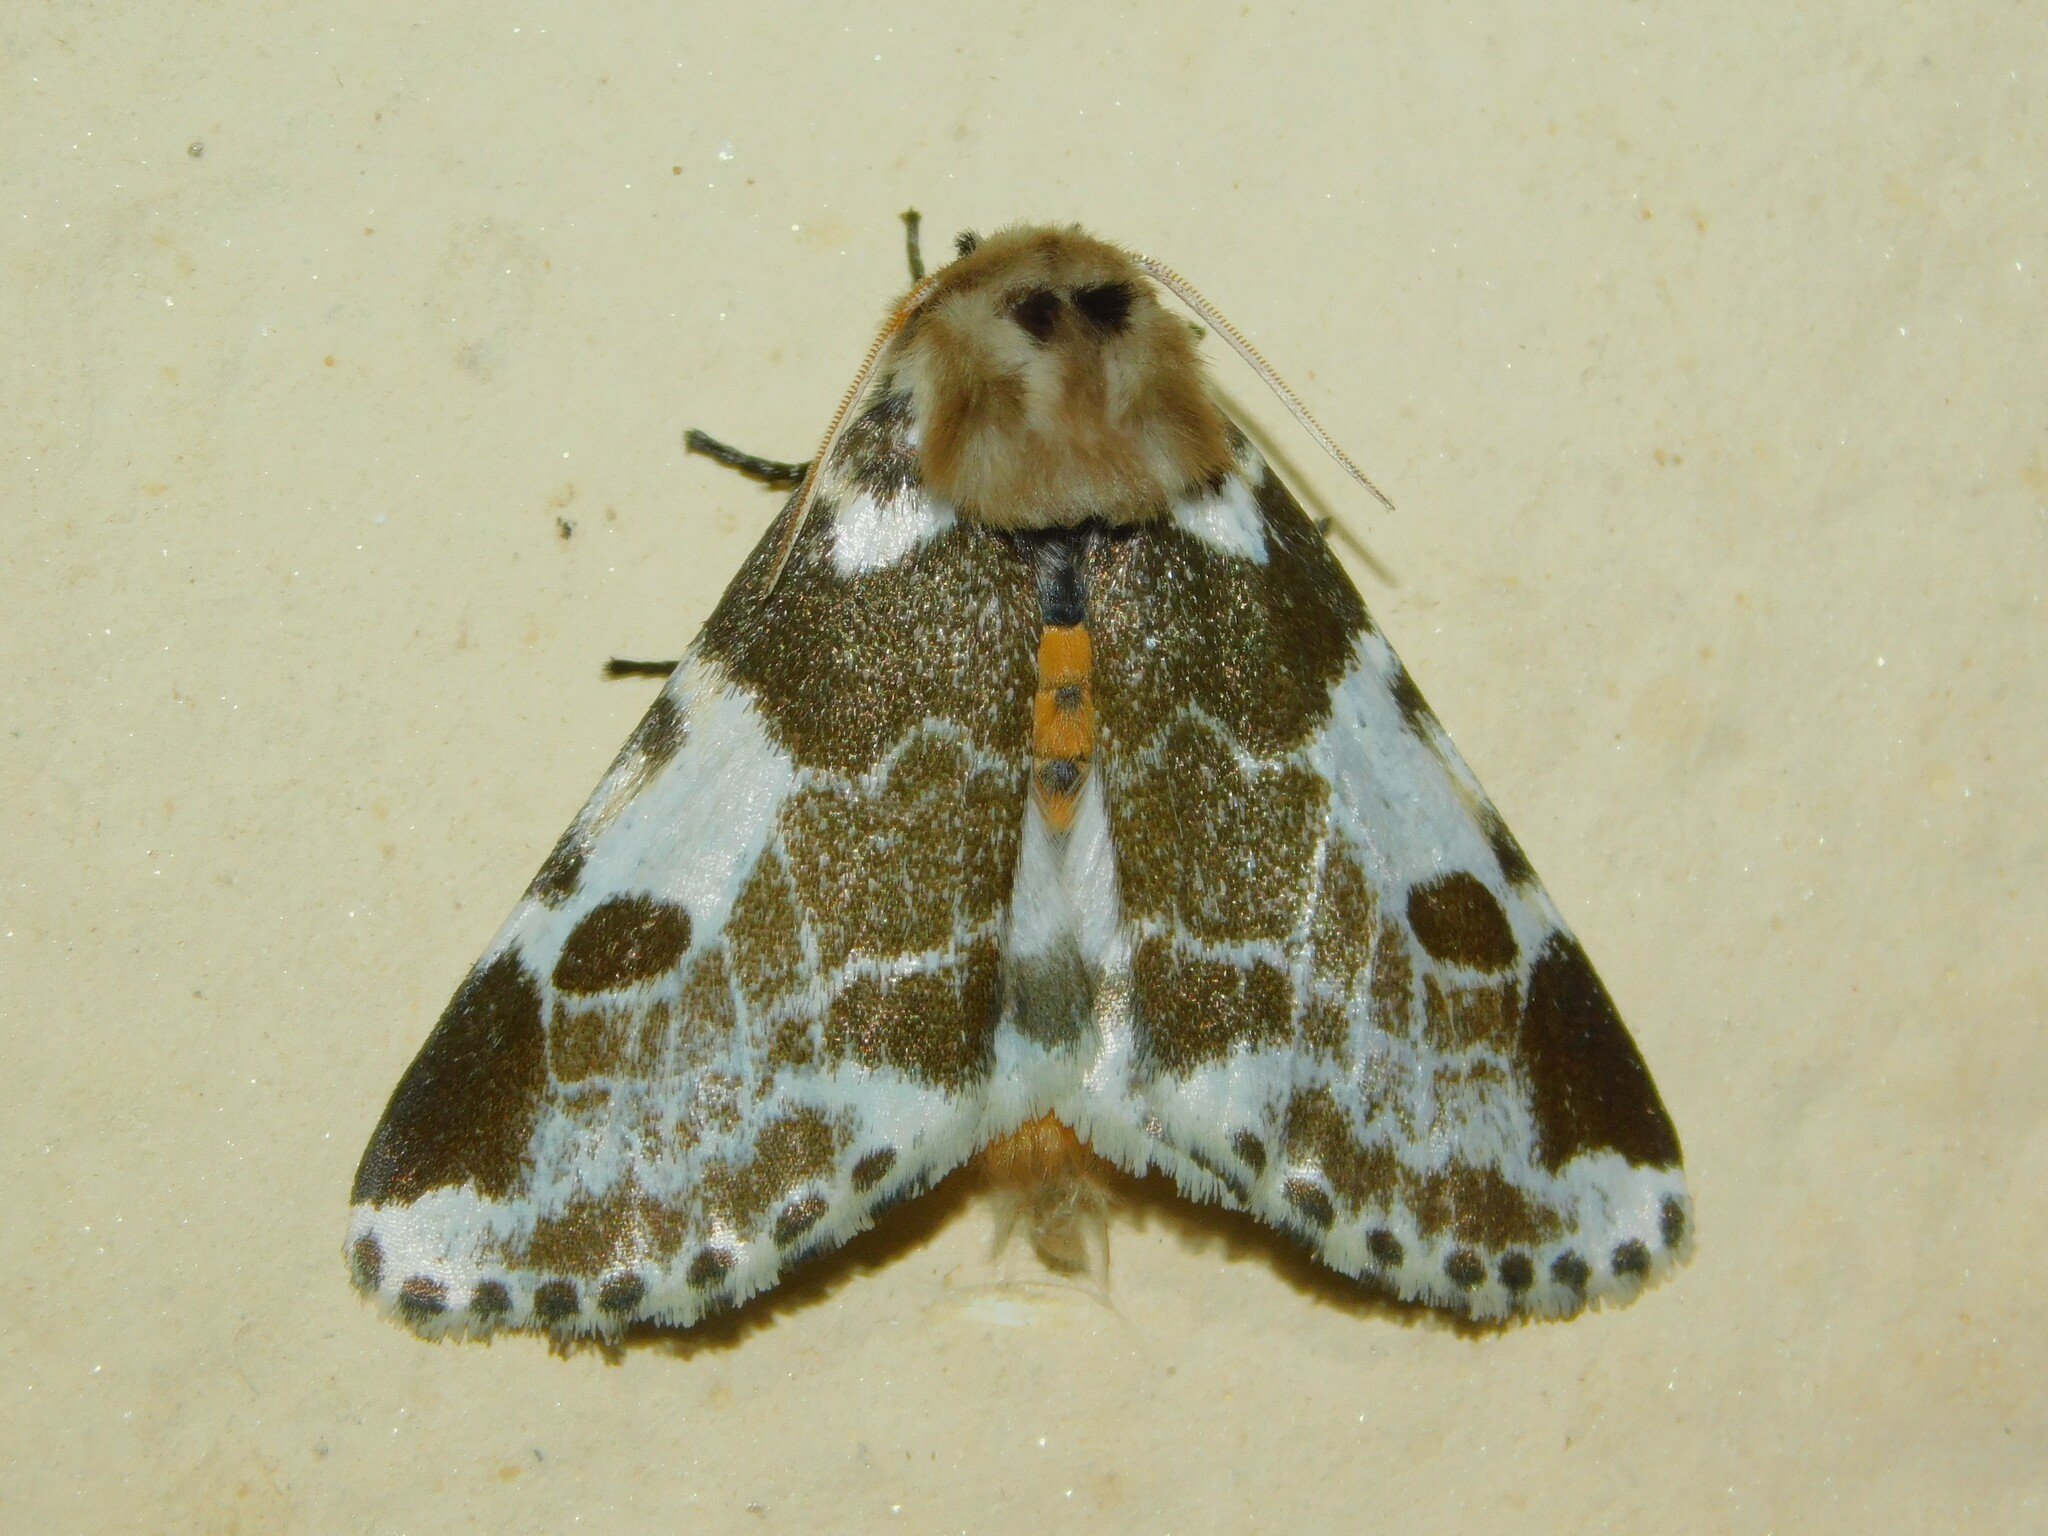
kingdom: Animalia
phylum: Arthropoda
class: Insecta
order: Lepidoptera
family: Erebidae
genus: Sciatta
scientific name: Sciatta inconcisa
